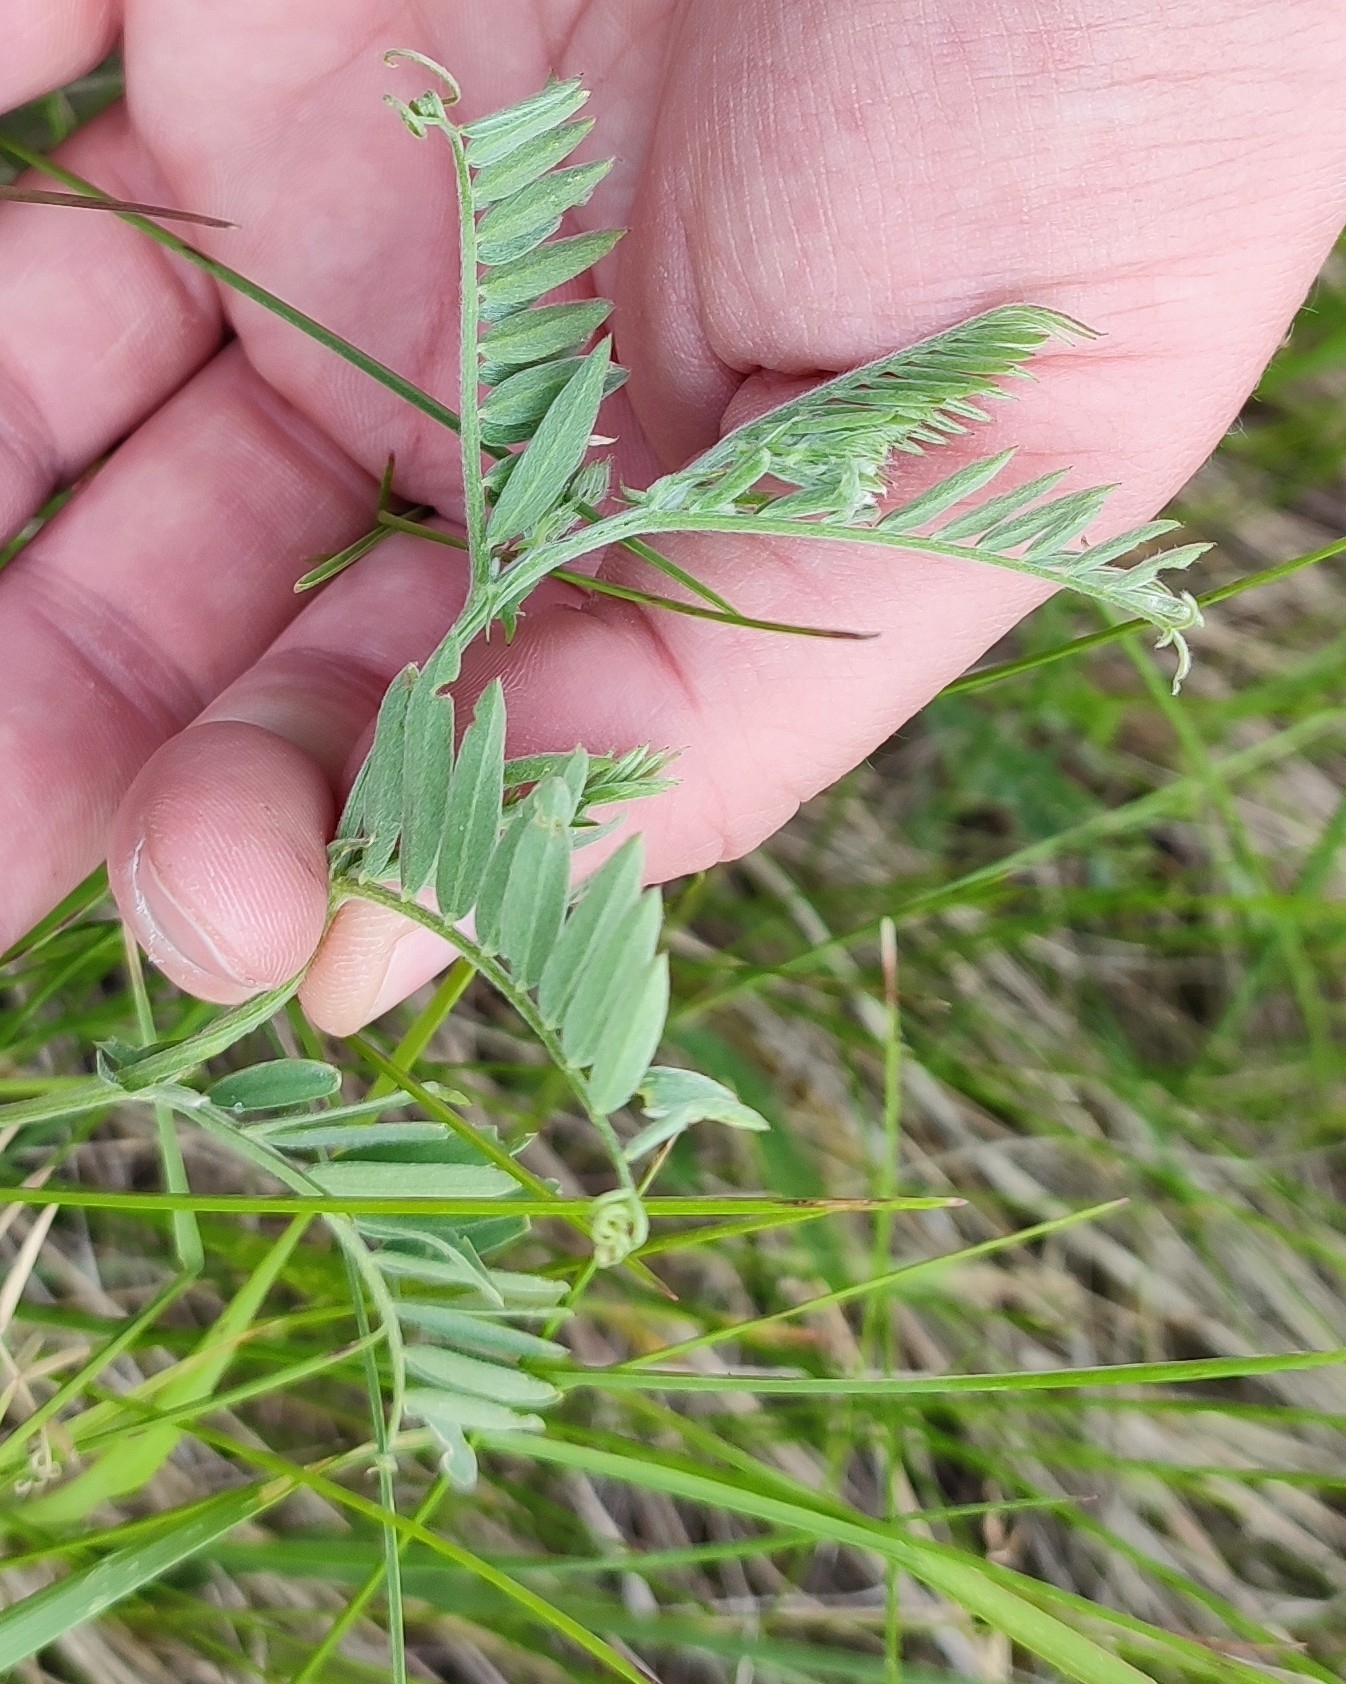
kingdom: Plantae
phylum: Tracheophyta
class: Magnoliopsida
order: Fabales
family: Fabaceae
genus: Vicia
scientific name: Vicia cracca
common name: Bird vetch
